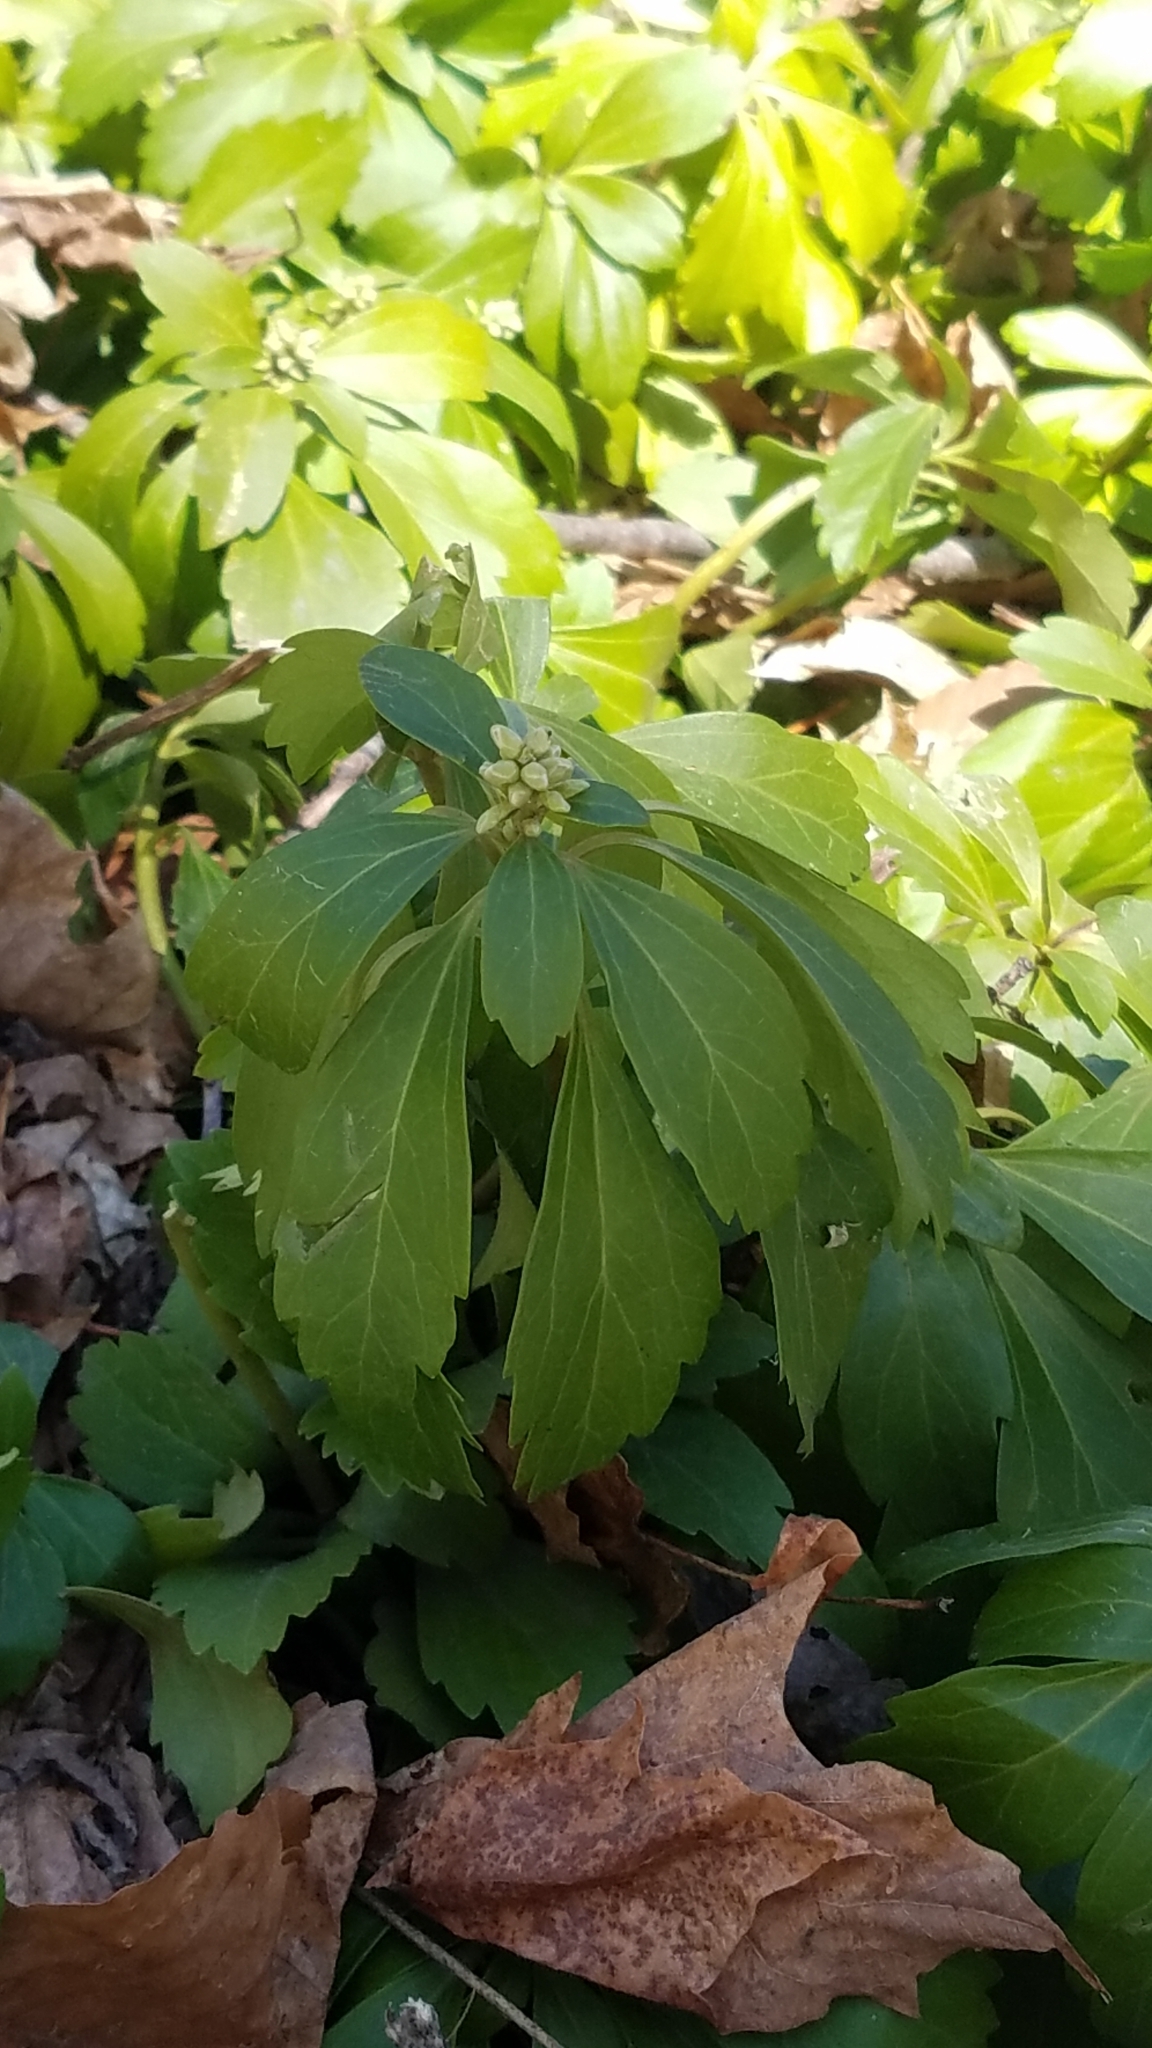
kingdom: Plantae
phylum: Tracheophyta
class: Magnoliopsida
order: Buxales
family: Buxaceae
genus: Pachysandra
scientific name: Pachysandra terminalis
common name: Japanese pachysandra
